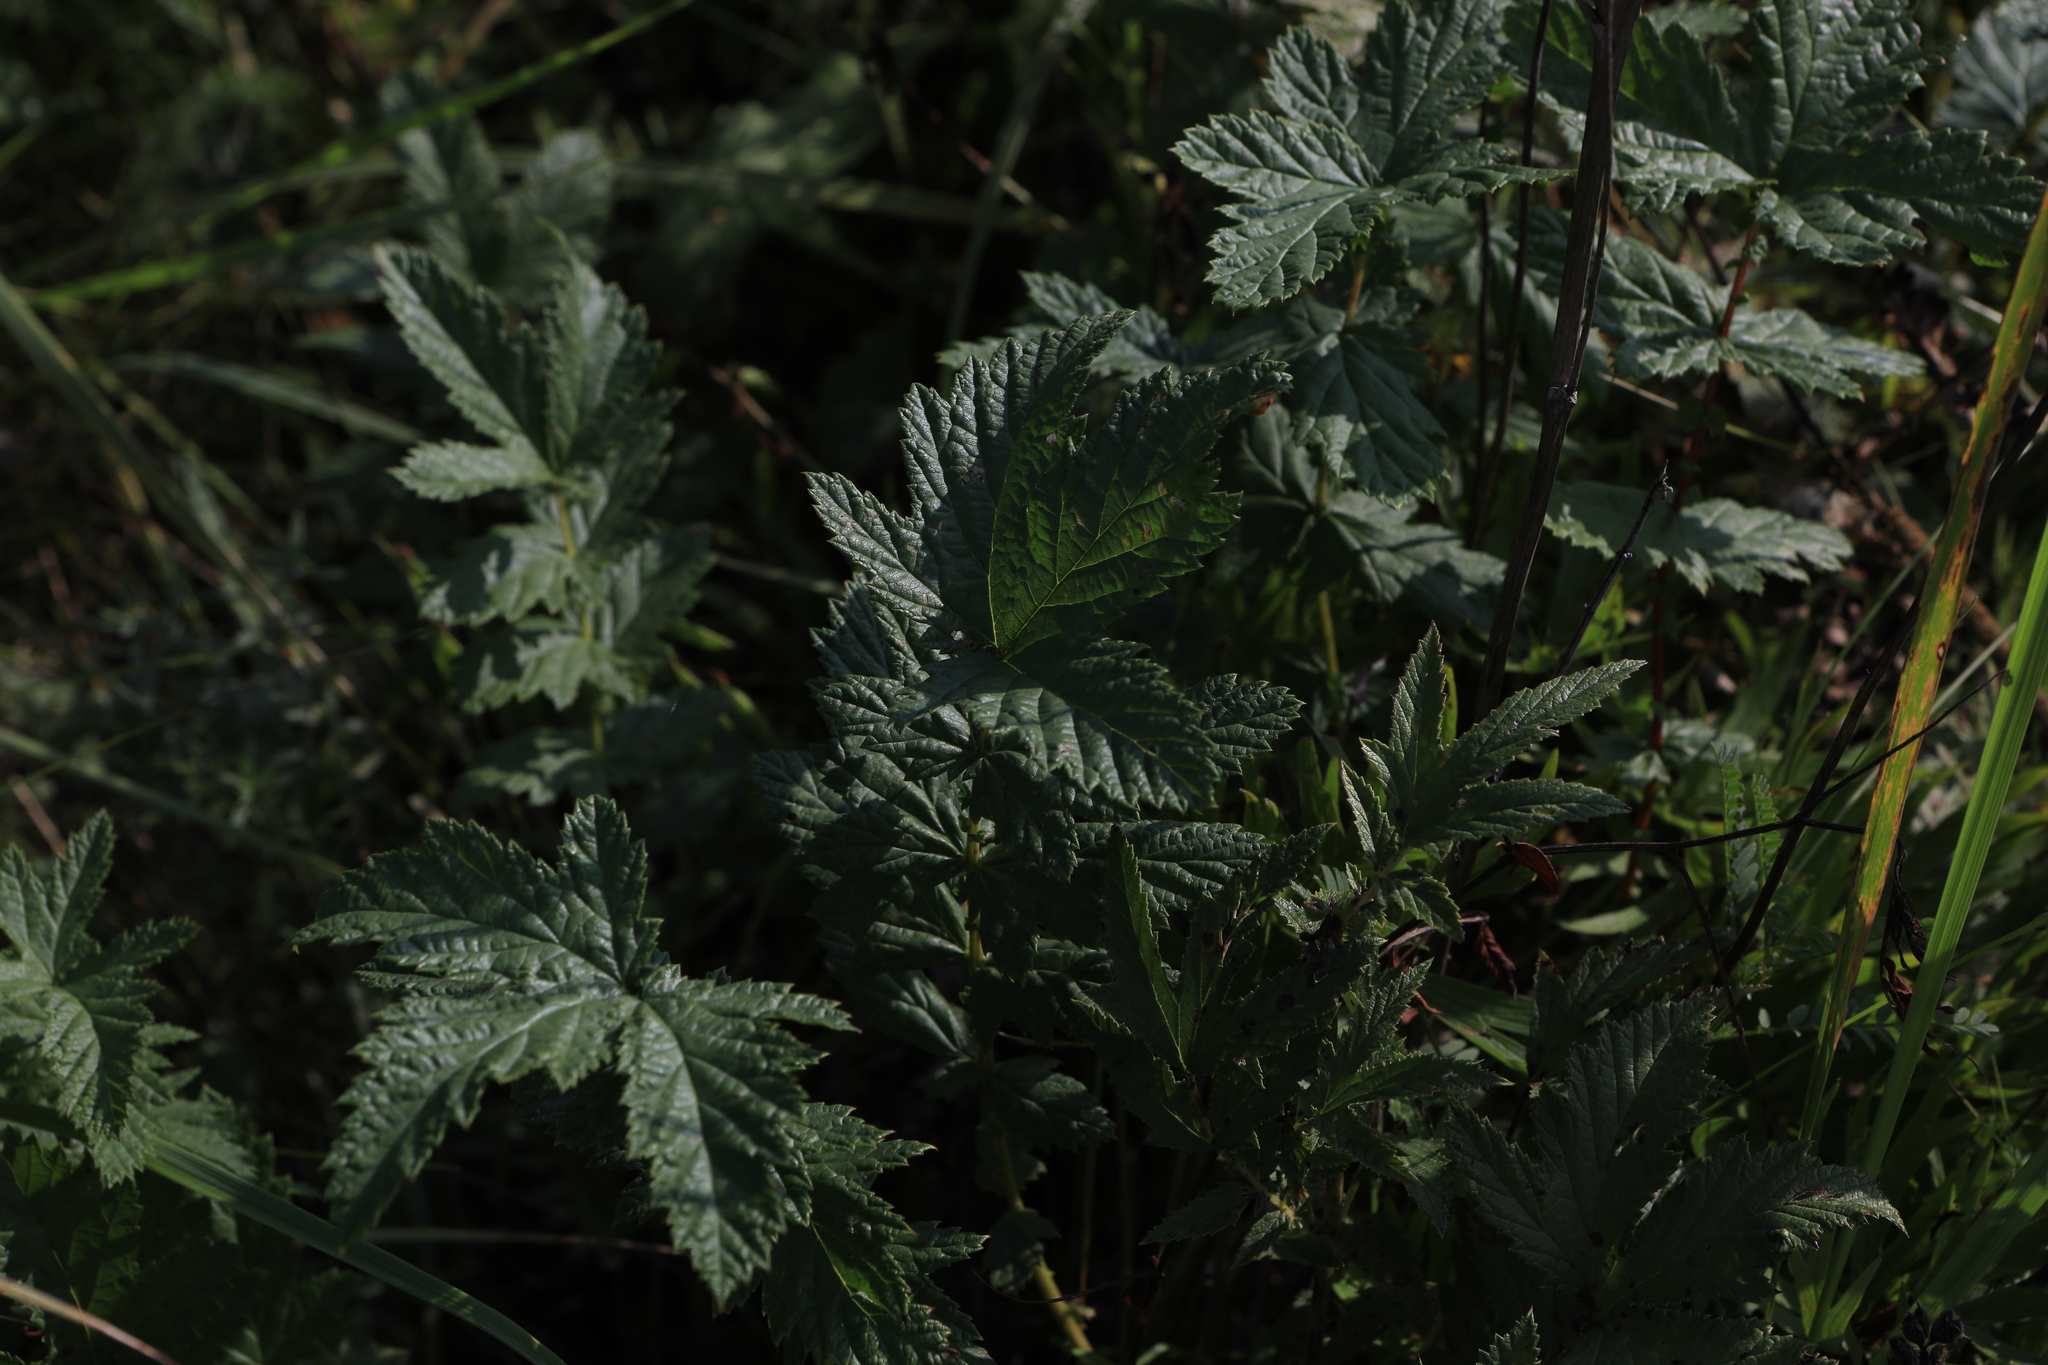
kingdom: Plantae
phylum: Tracheophyta
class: Magnoliopsida
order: Rosales
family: Rosaceae
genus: Filipendula
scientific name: Filipendula ulmaria
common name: Meadowsweet
